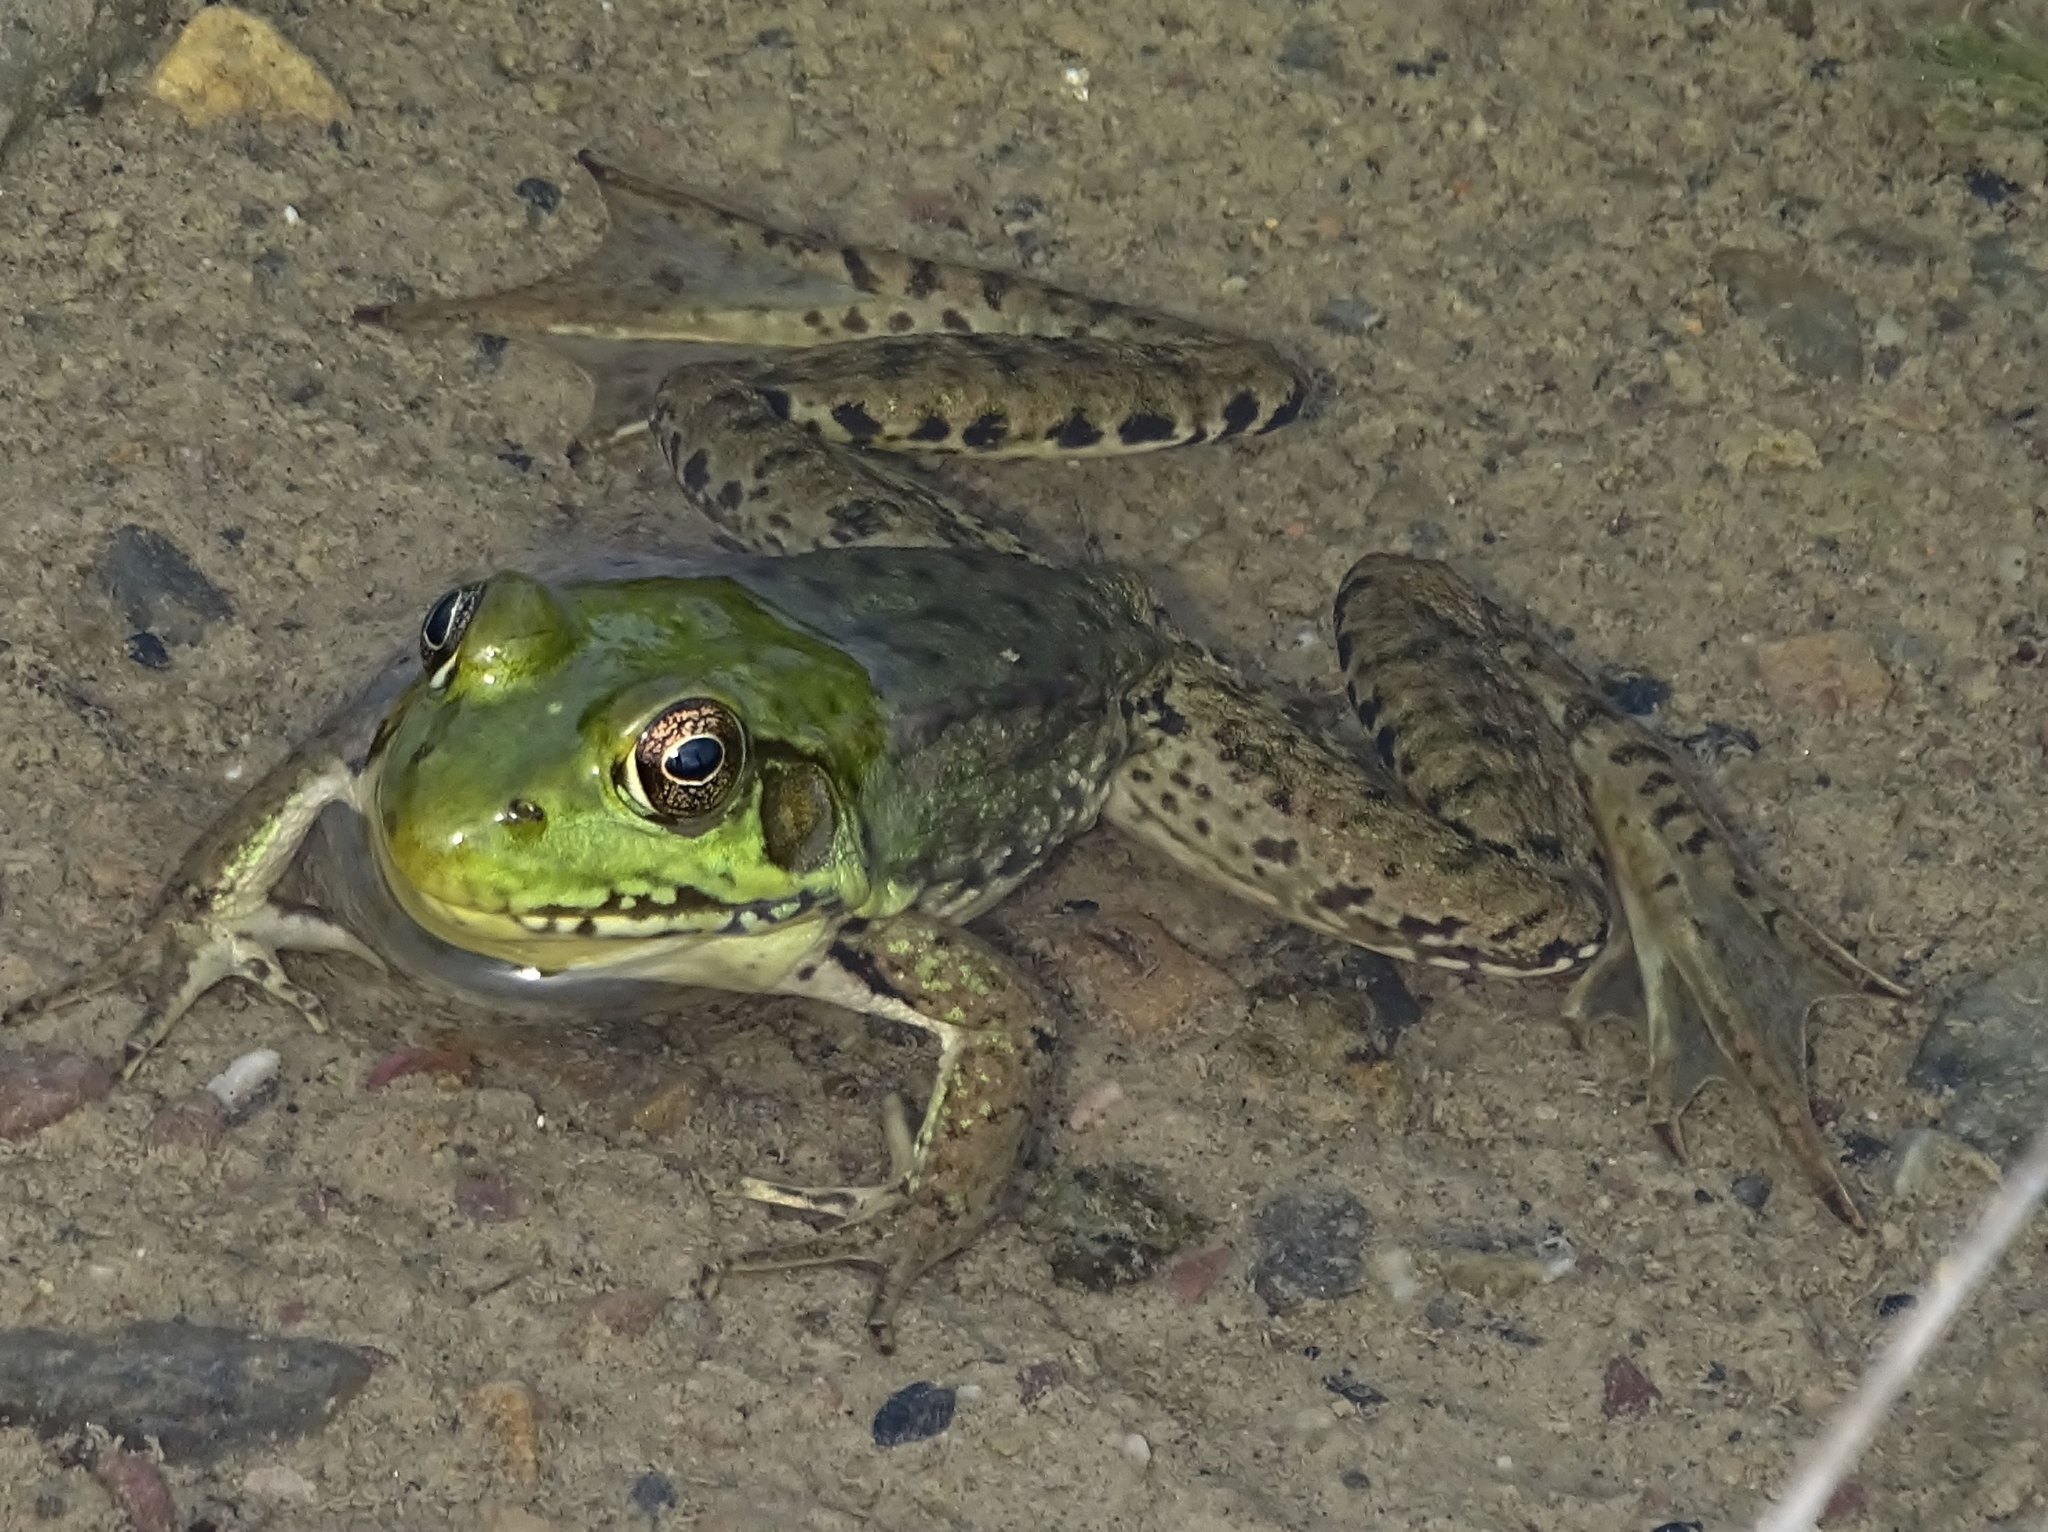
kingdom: Animalia
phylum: Chordata
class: Amphibia
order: Anura
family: Ranidae
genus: Lithobates
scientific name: Lithobates clamitans
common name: Green frog
